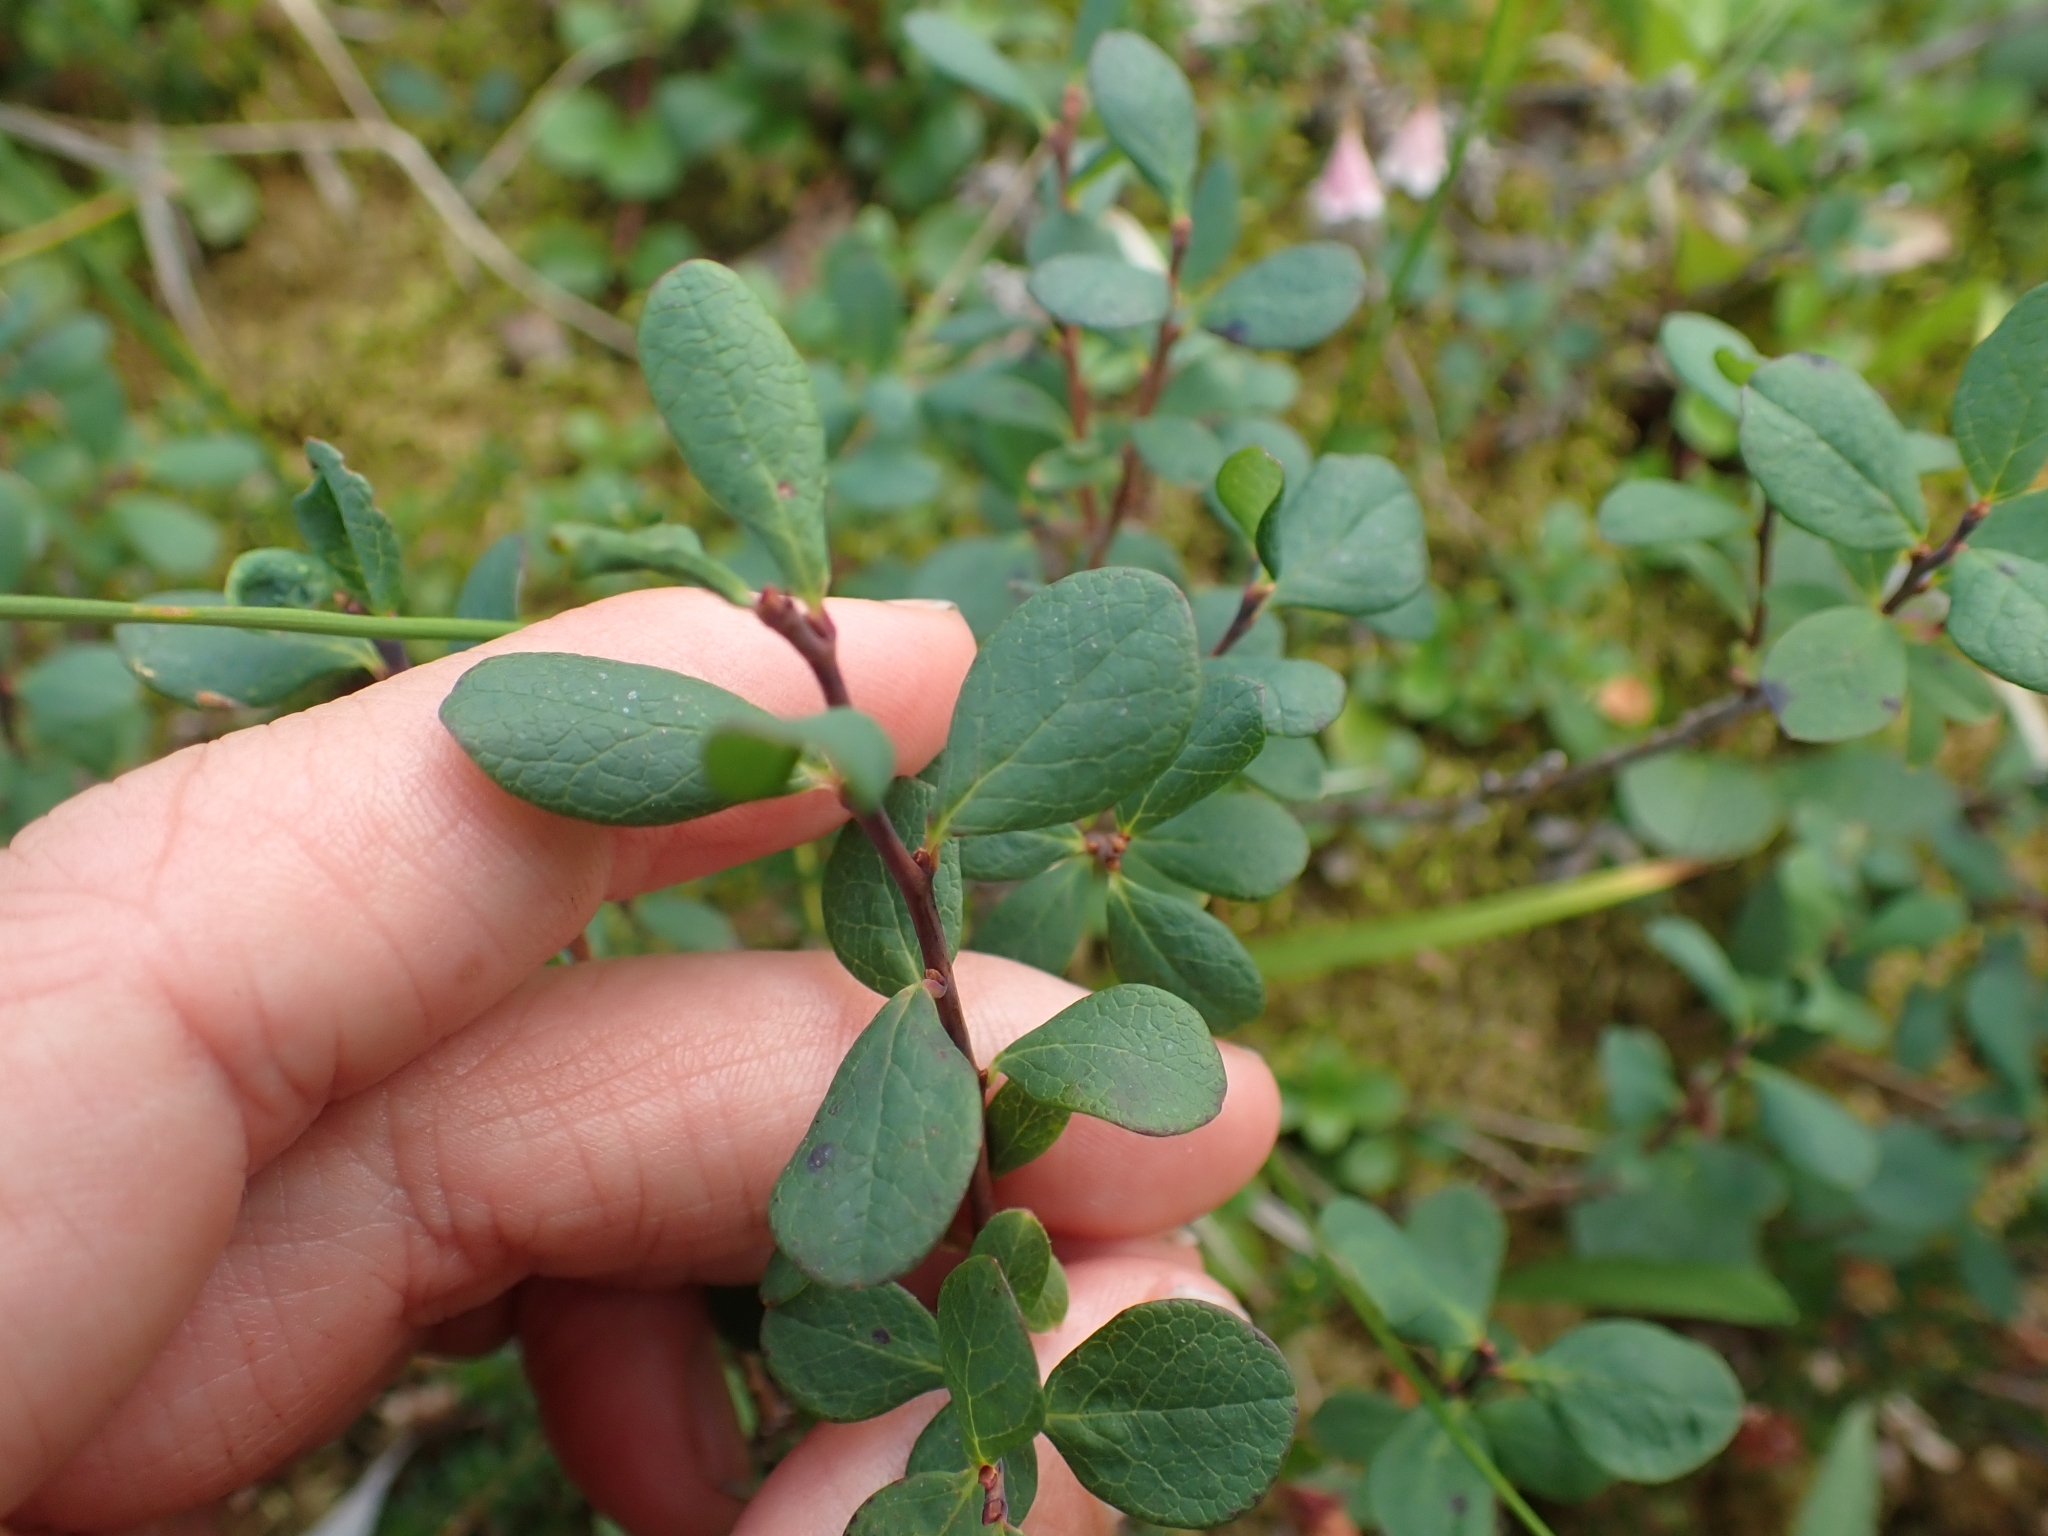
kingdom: Plantae
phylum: Tracheophyta
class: Magnoliopsida
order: Ericales
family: Ericaceae
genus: Vaccinium
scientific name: Vaccinium uliginosum
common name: Bog bilberry
